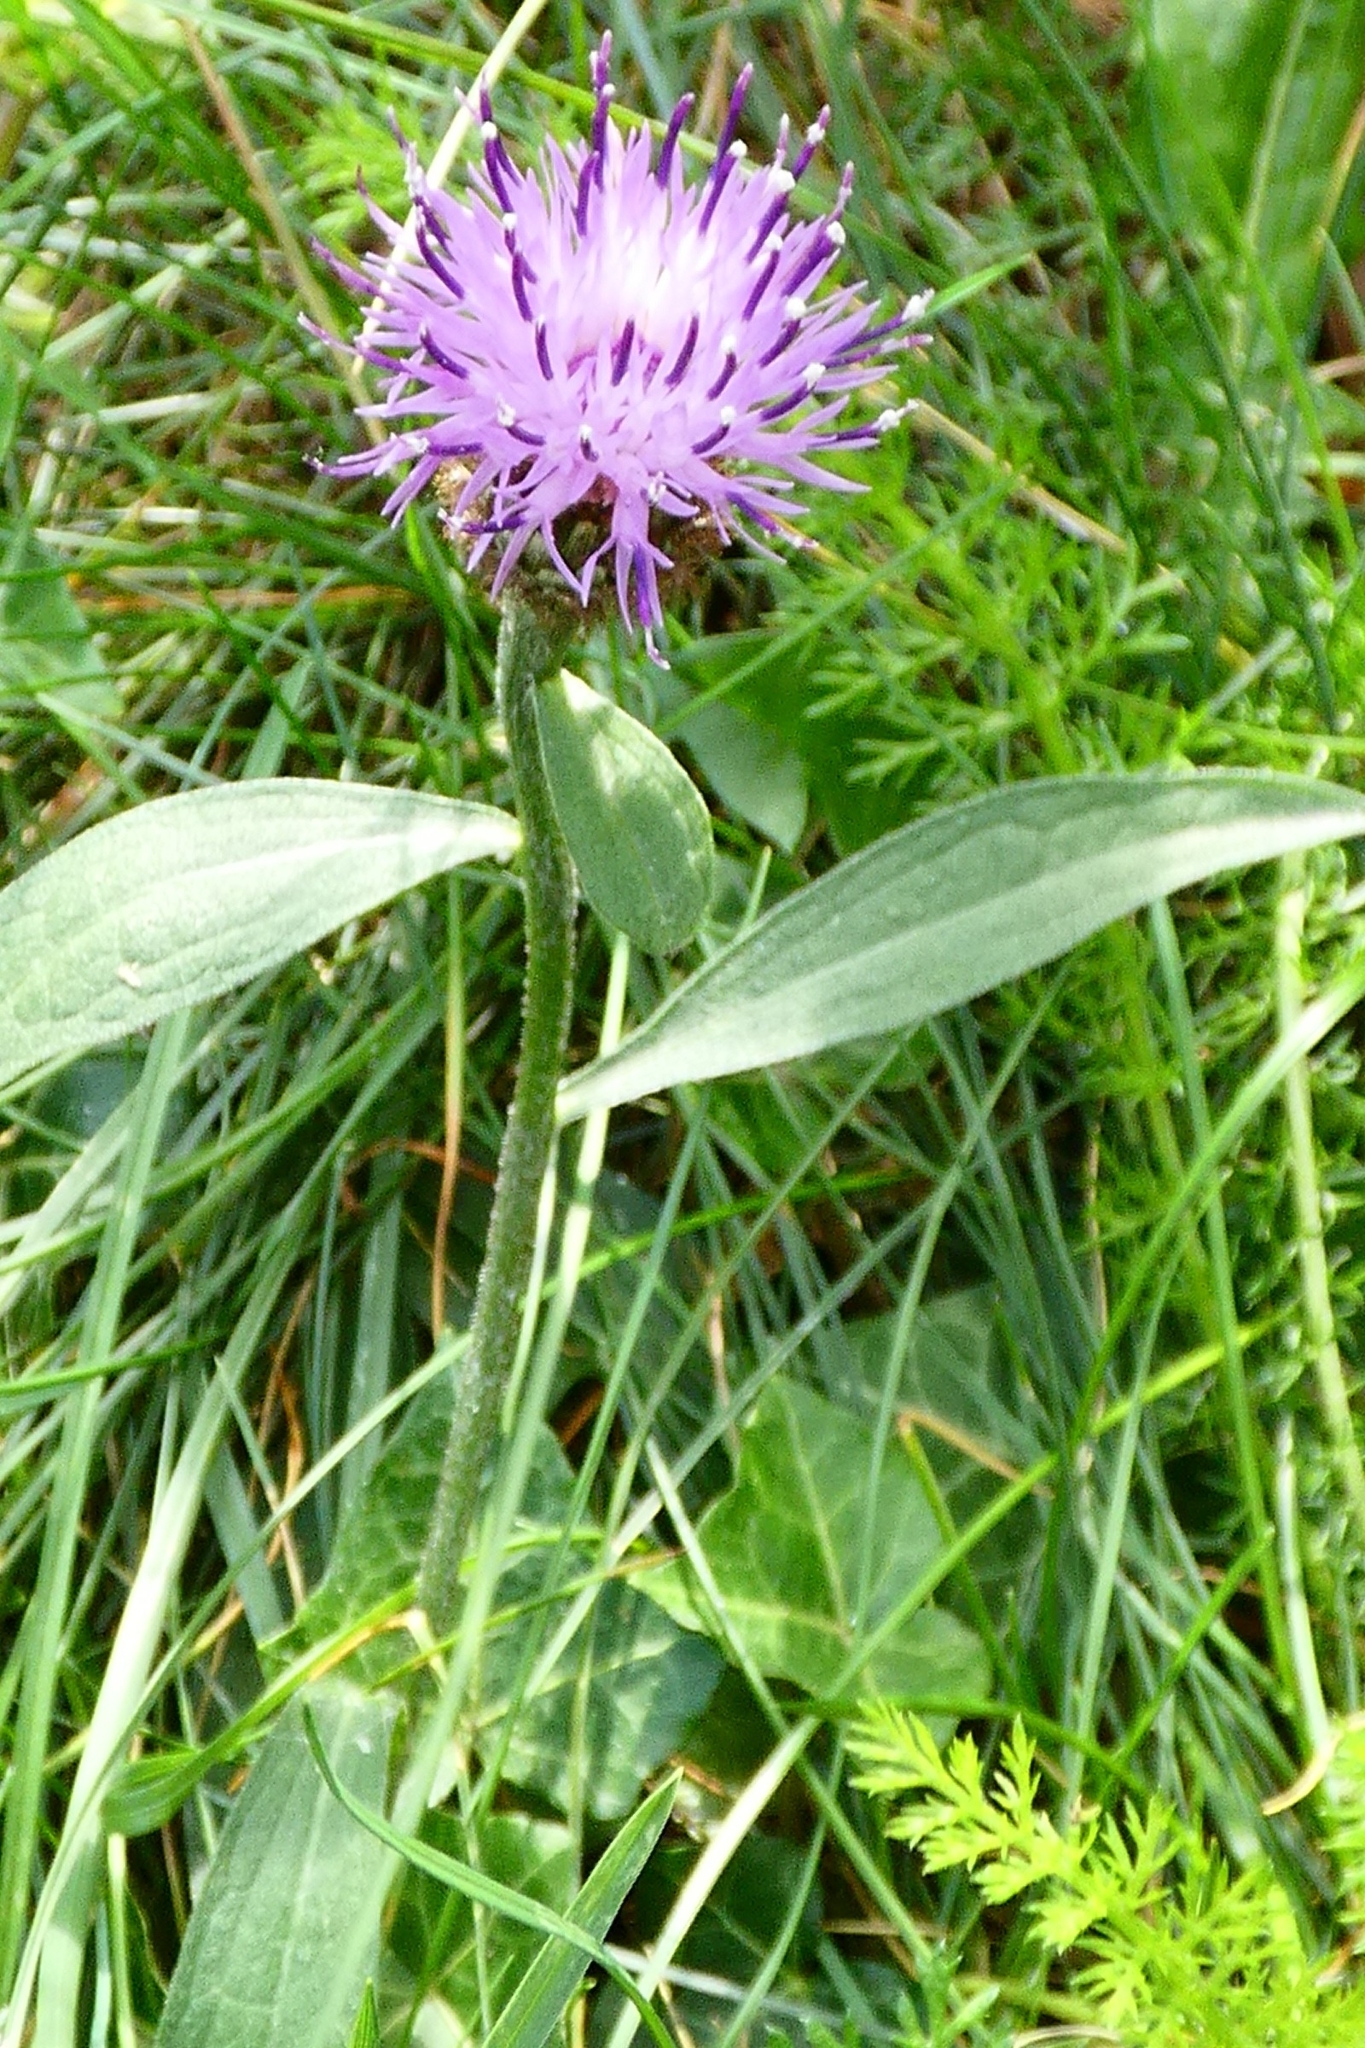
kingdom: Plantae
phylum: Tracheophyta
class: Magnoliopsida
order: Asterales
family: Asteraceae
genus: Centaurea
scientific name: Centaurea nigra
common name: Lesser knapweed
